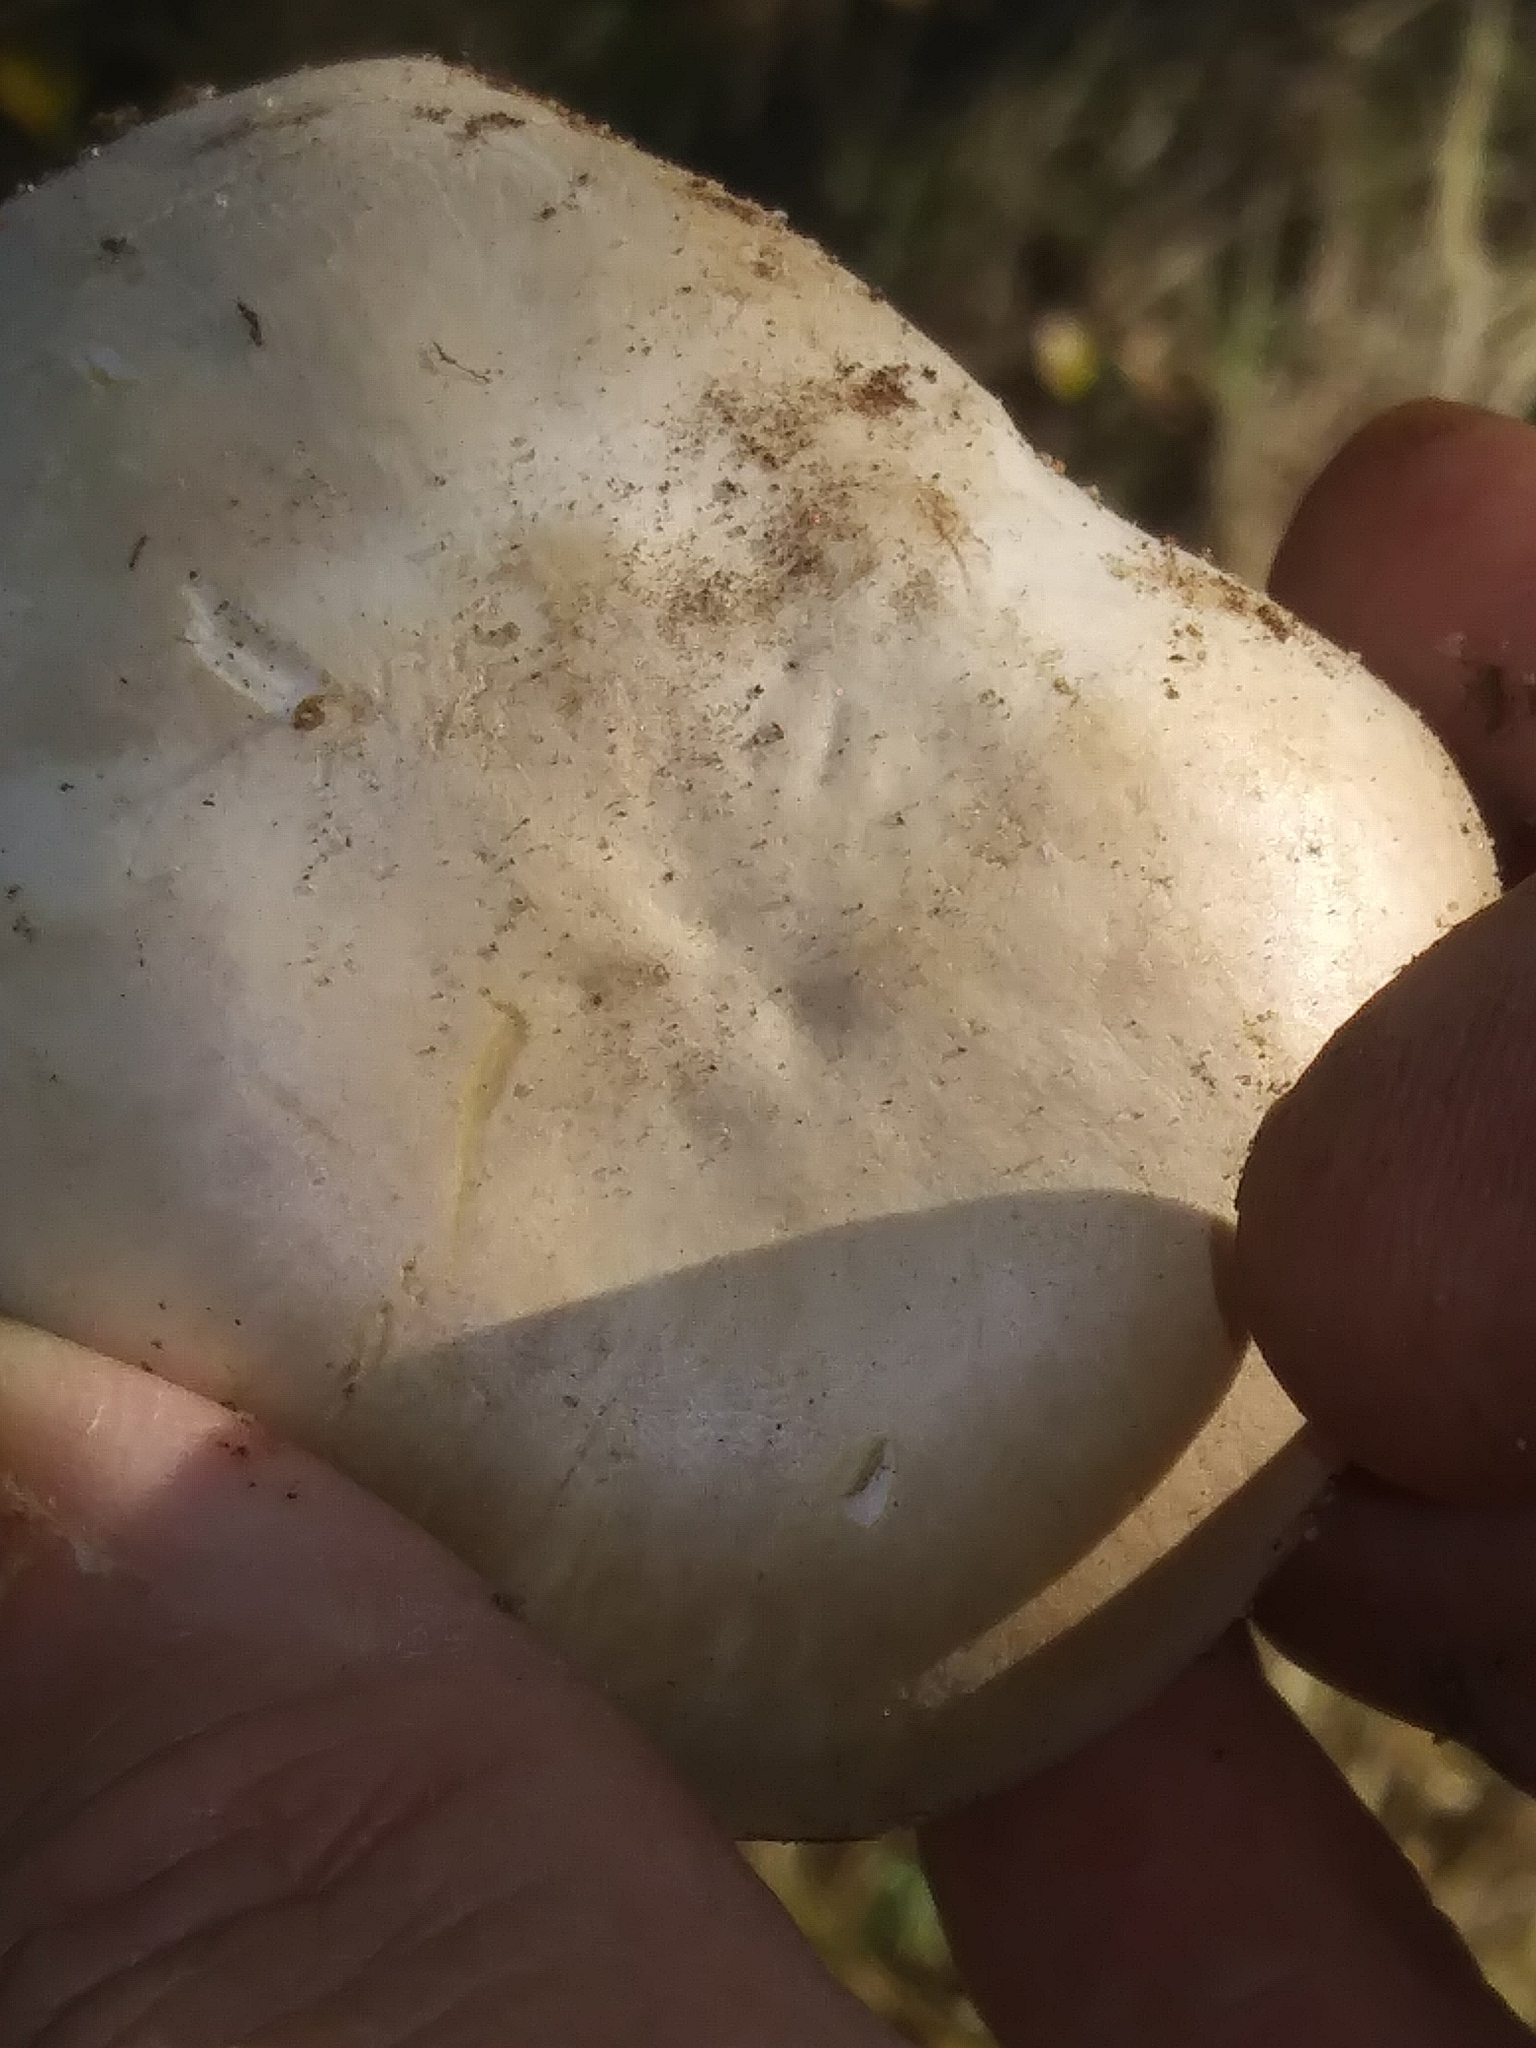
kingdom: Fungi
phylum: Basidiomycota
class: Agaricomycetes
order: Agaricales
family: Agaricaceae
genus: Agaricus
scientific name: Agaricus xanthodermus
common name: Yellow stainer
